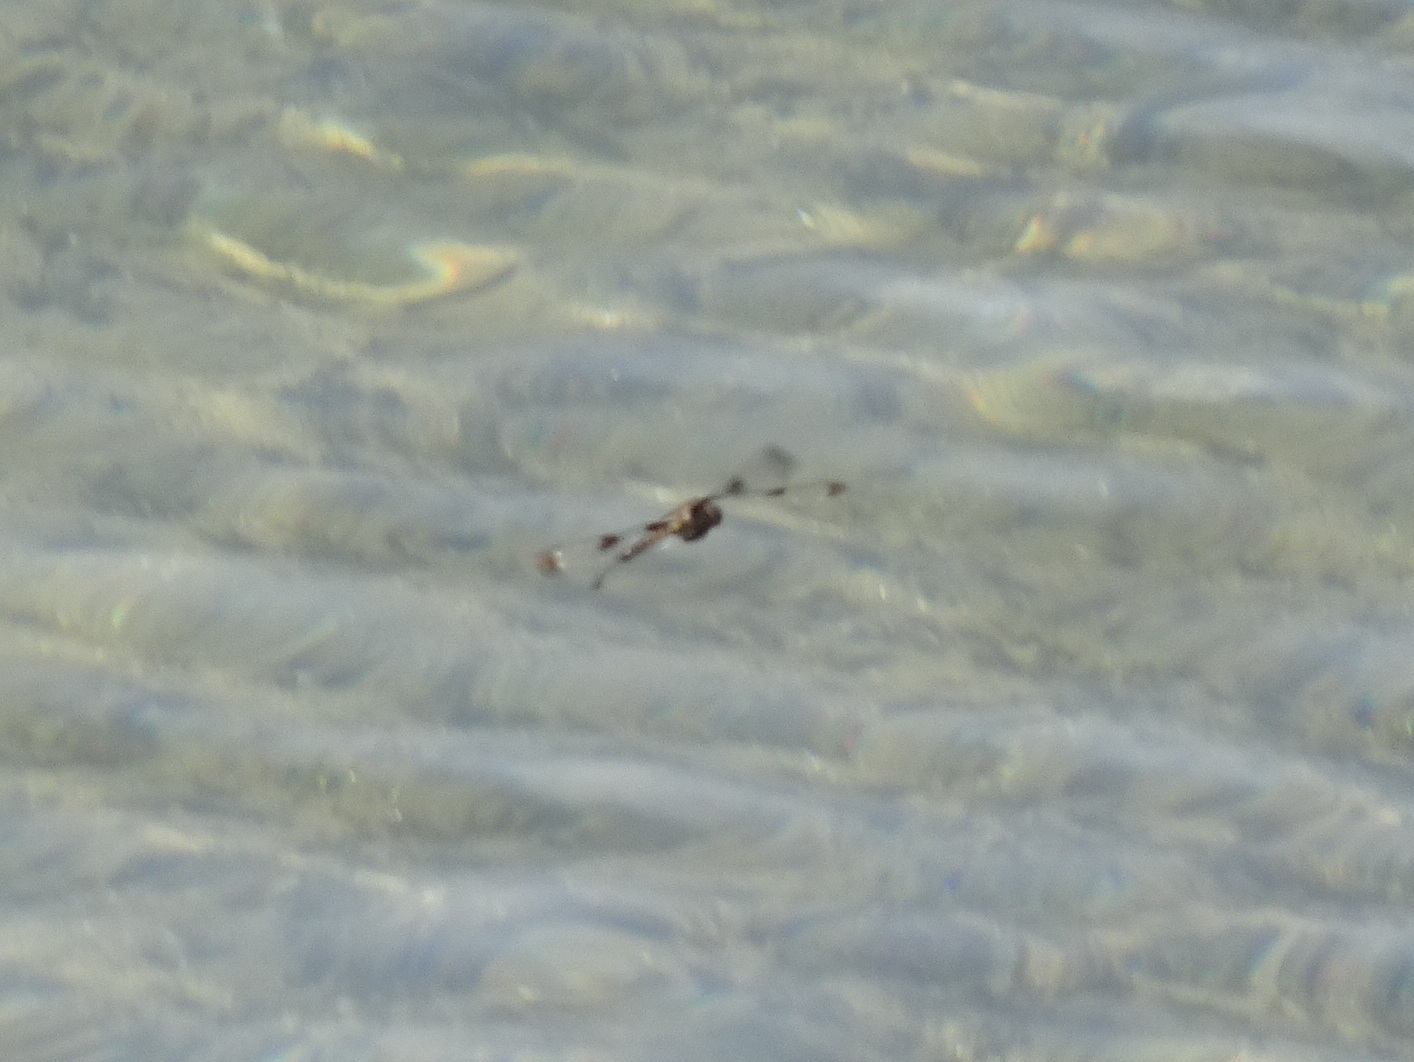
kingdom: Animalia
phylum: Arthropoda
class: Insecta
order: Odonata
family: Corduliidae
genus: Epitheca
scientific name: Epitheca princeps
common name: Prince baskettail
